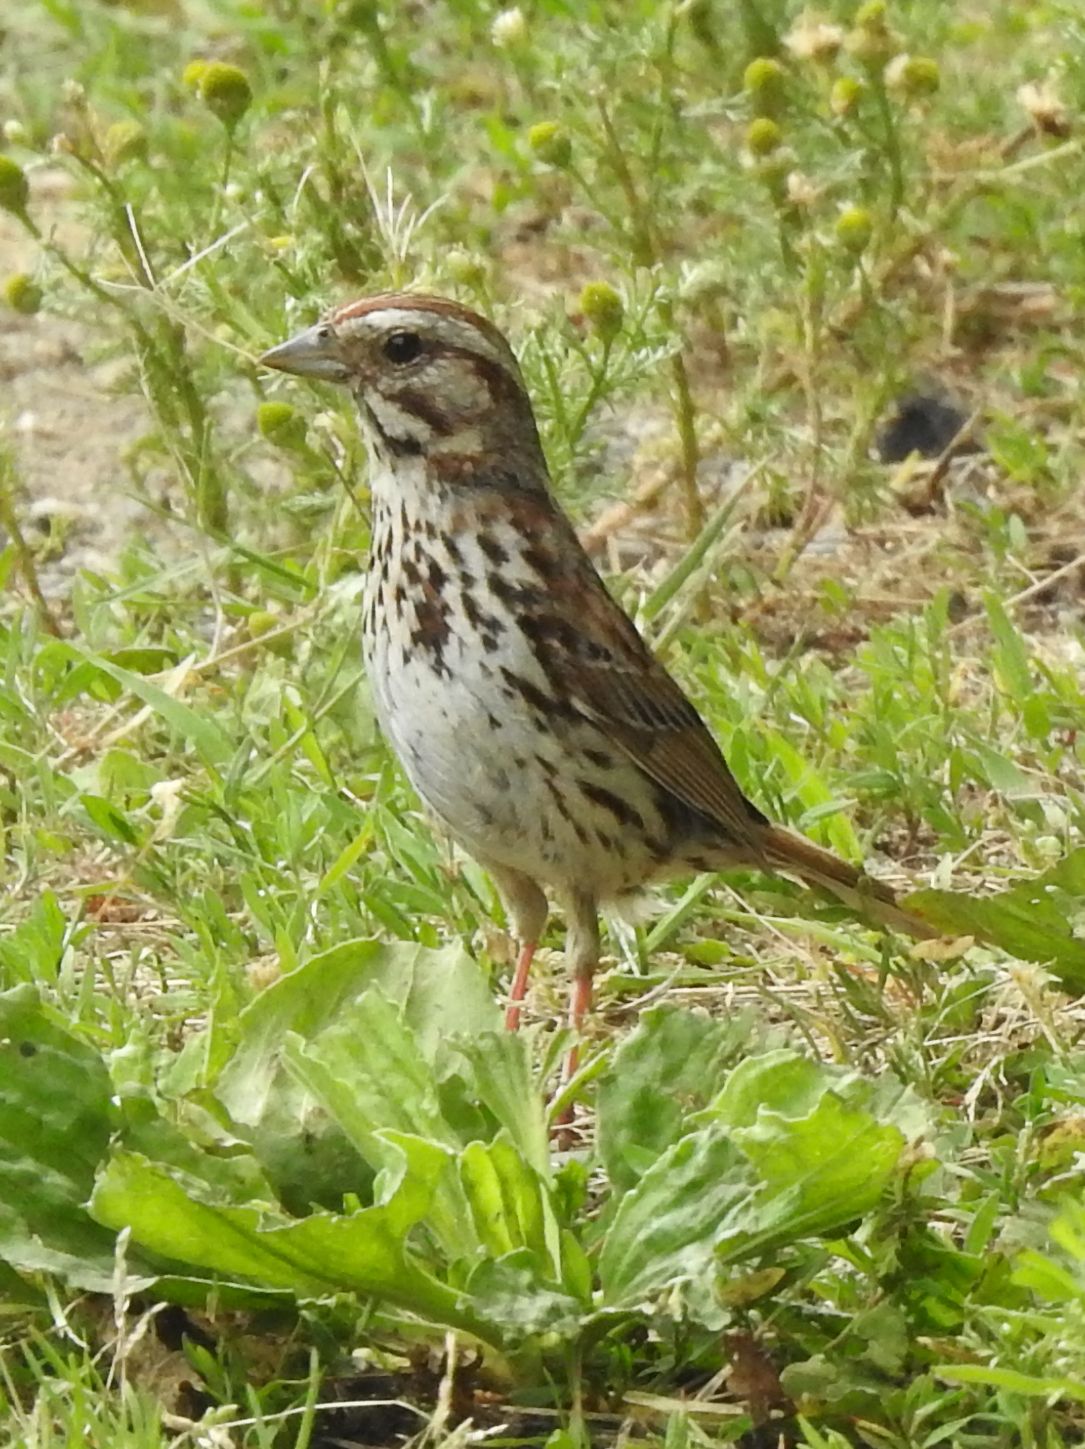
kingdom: Animalia
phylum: Chordata
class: Aves
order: Passeriformes
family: Passerellidae
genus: Melospiza
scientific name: Melospiza melodia
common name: Song sparrow
